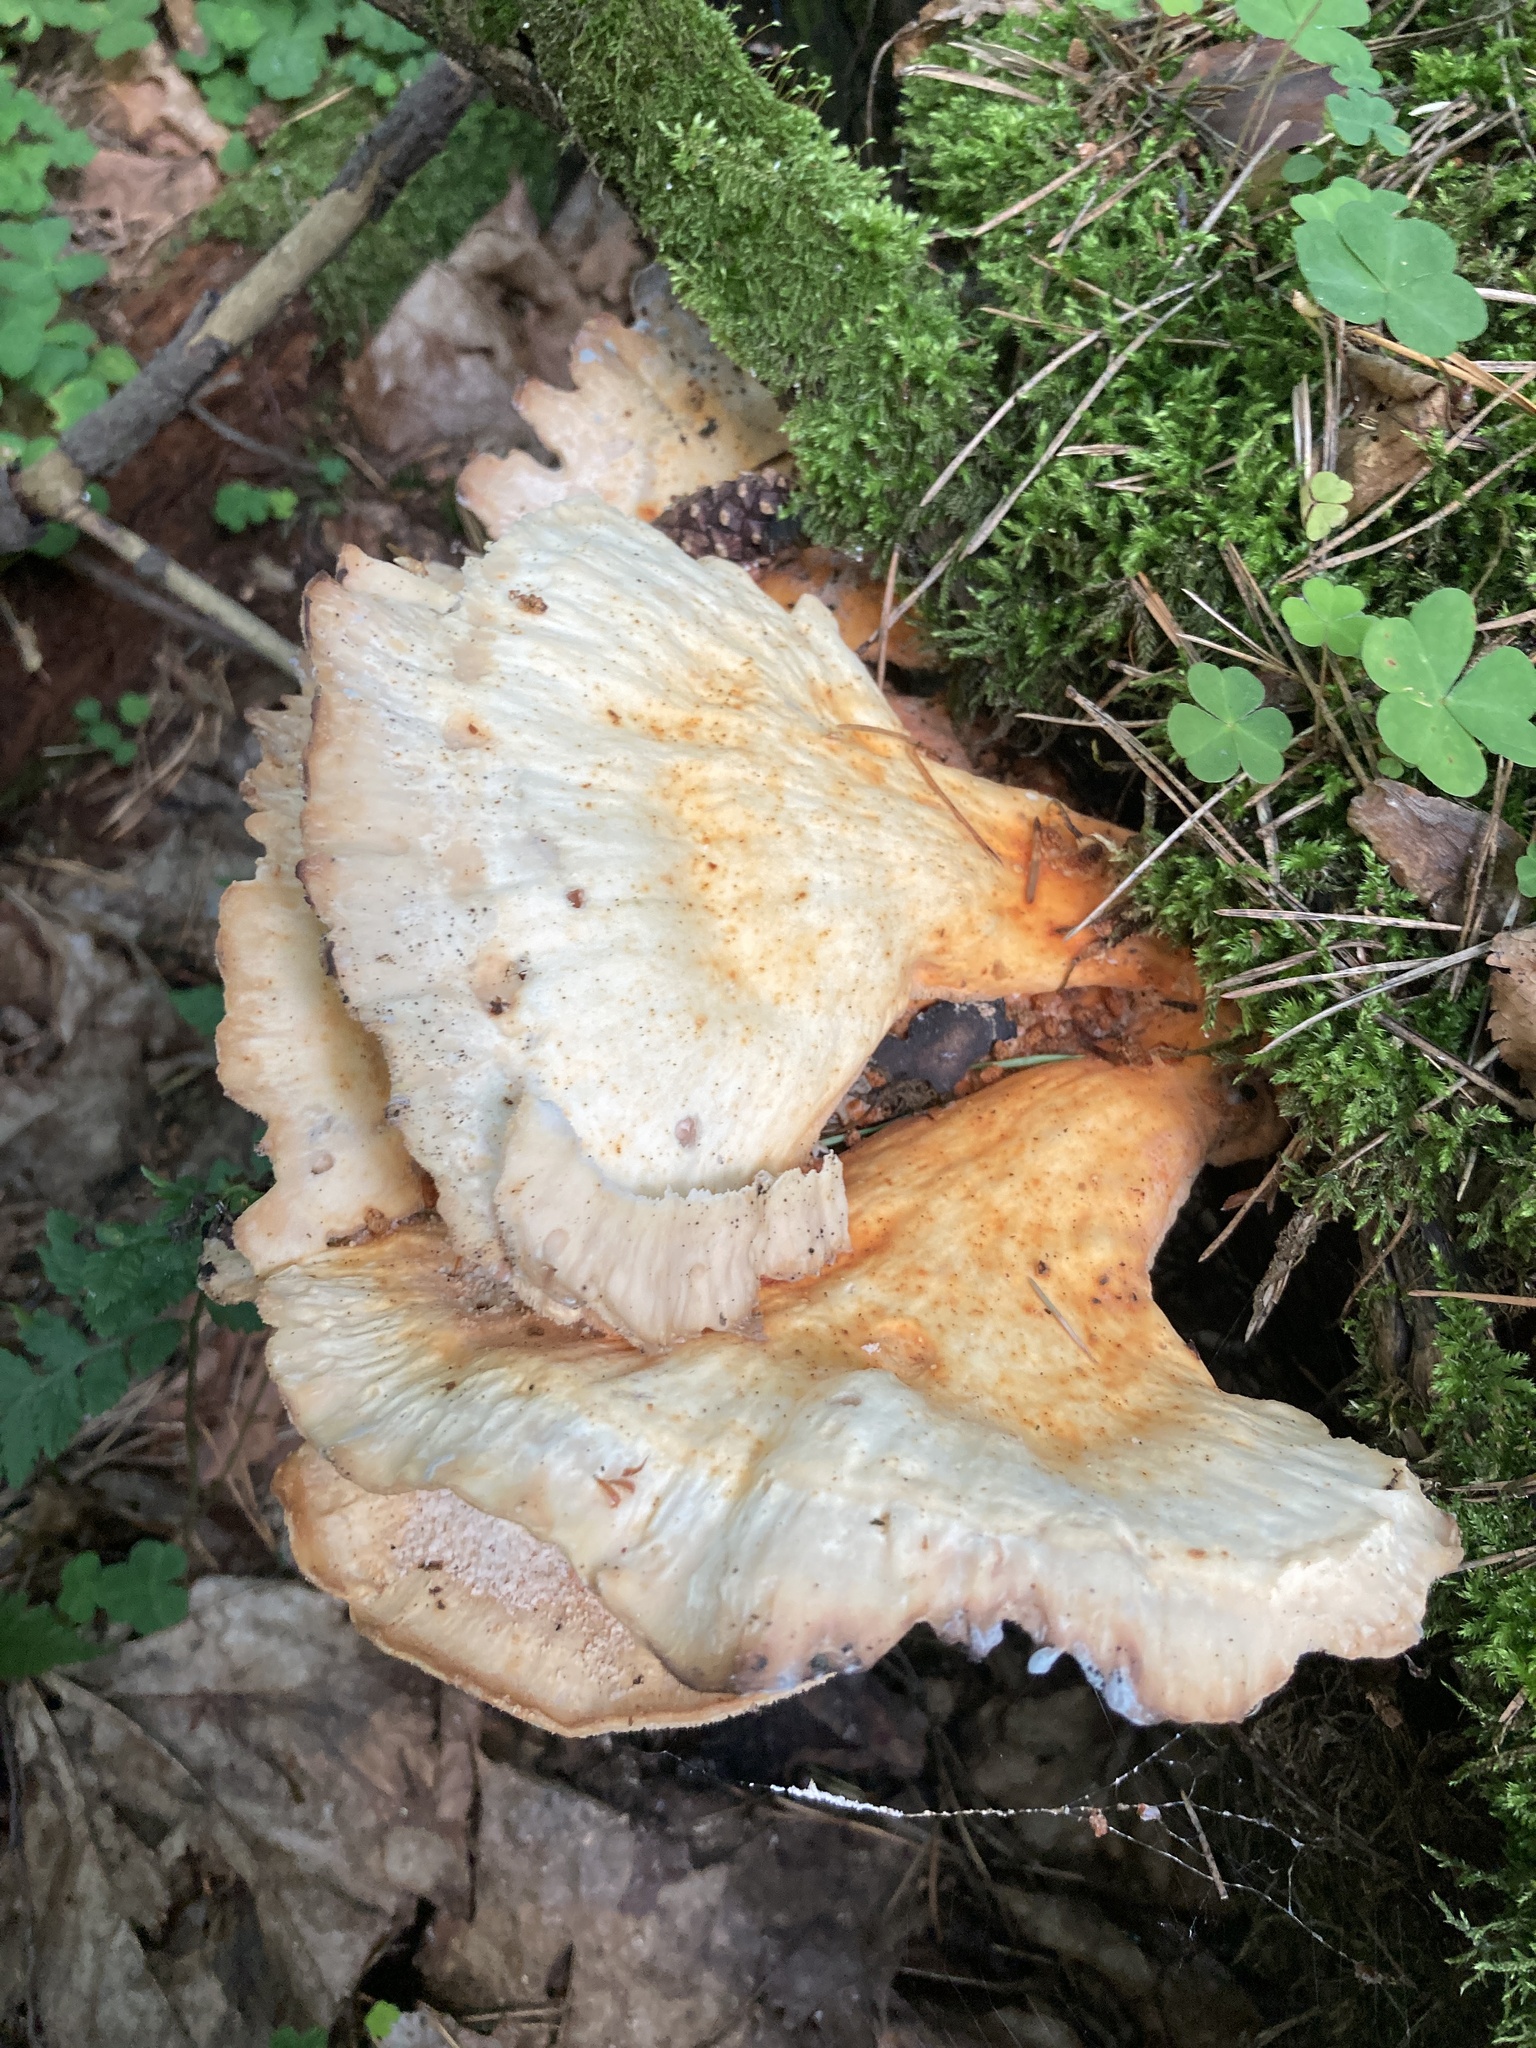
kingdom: Fungi
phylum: Basidiomycota
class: Agaricomycetes
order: Polyporales
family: Laetiporaceae
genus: Laetiporus
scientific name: Laetiporus sulphureus
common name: Chicken of the woods
